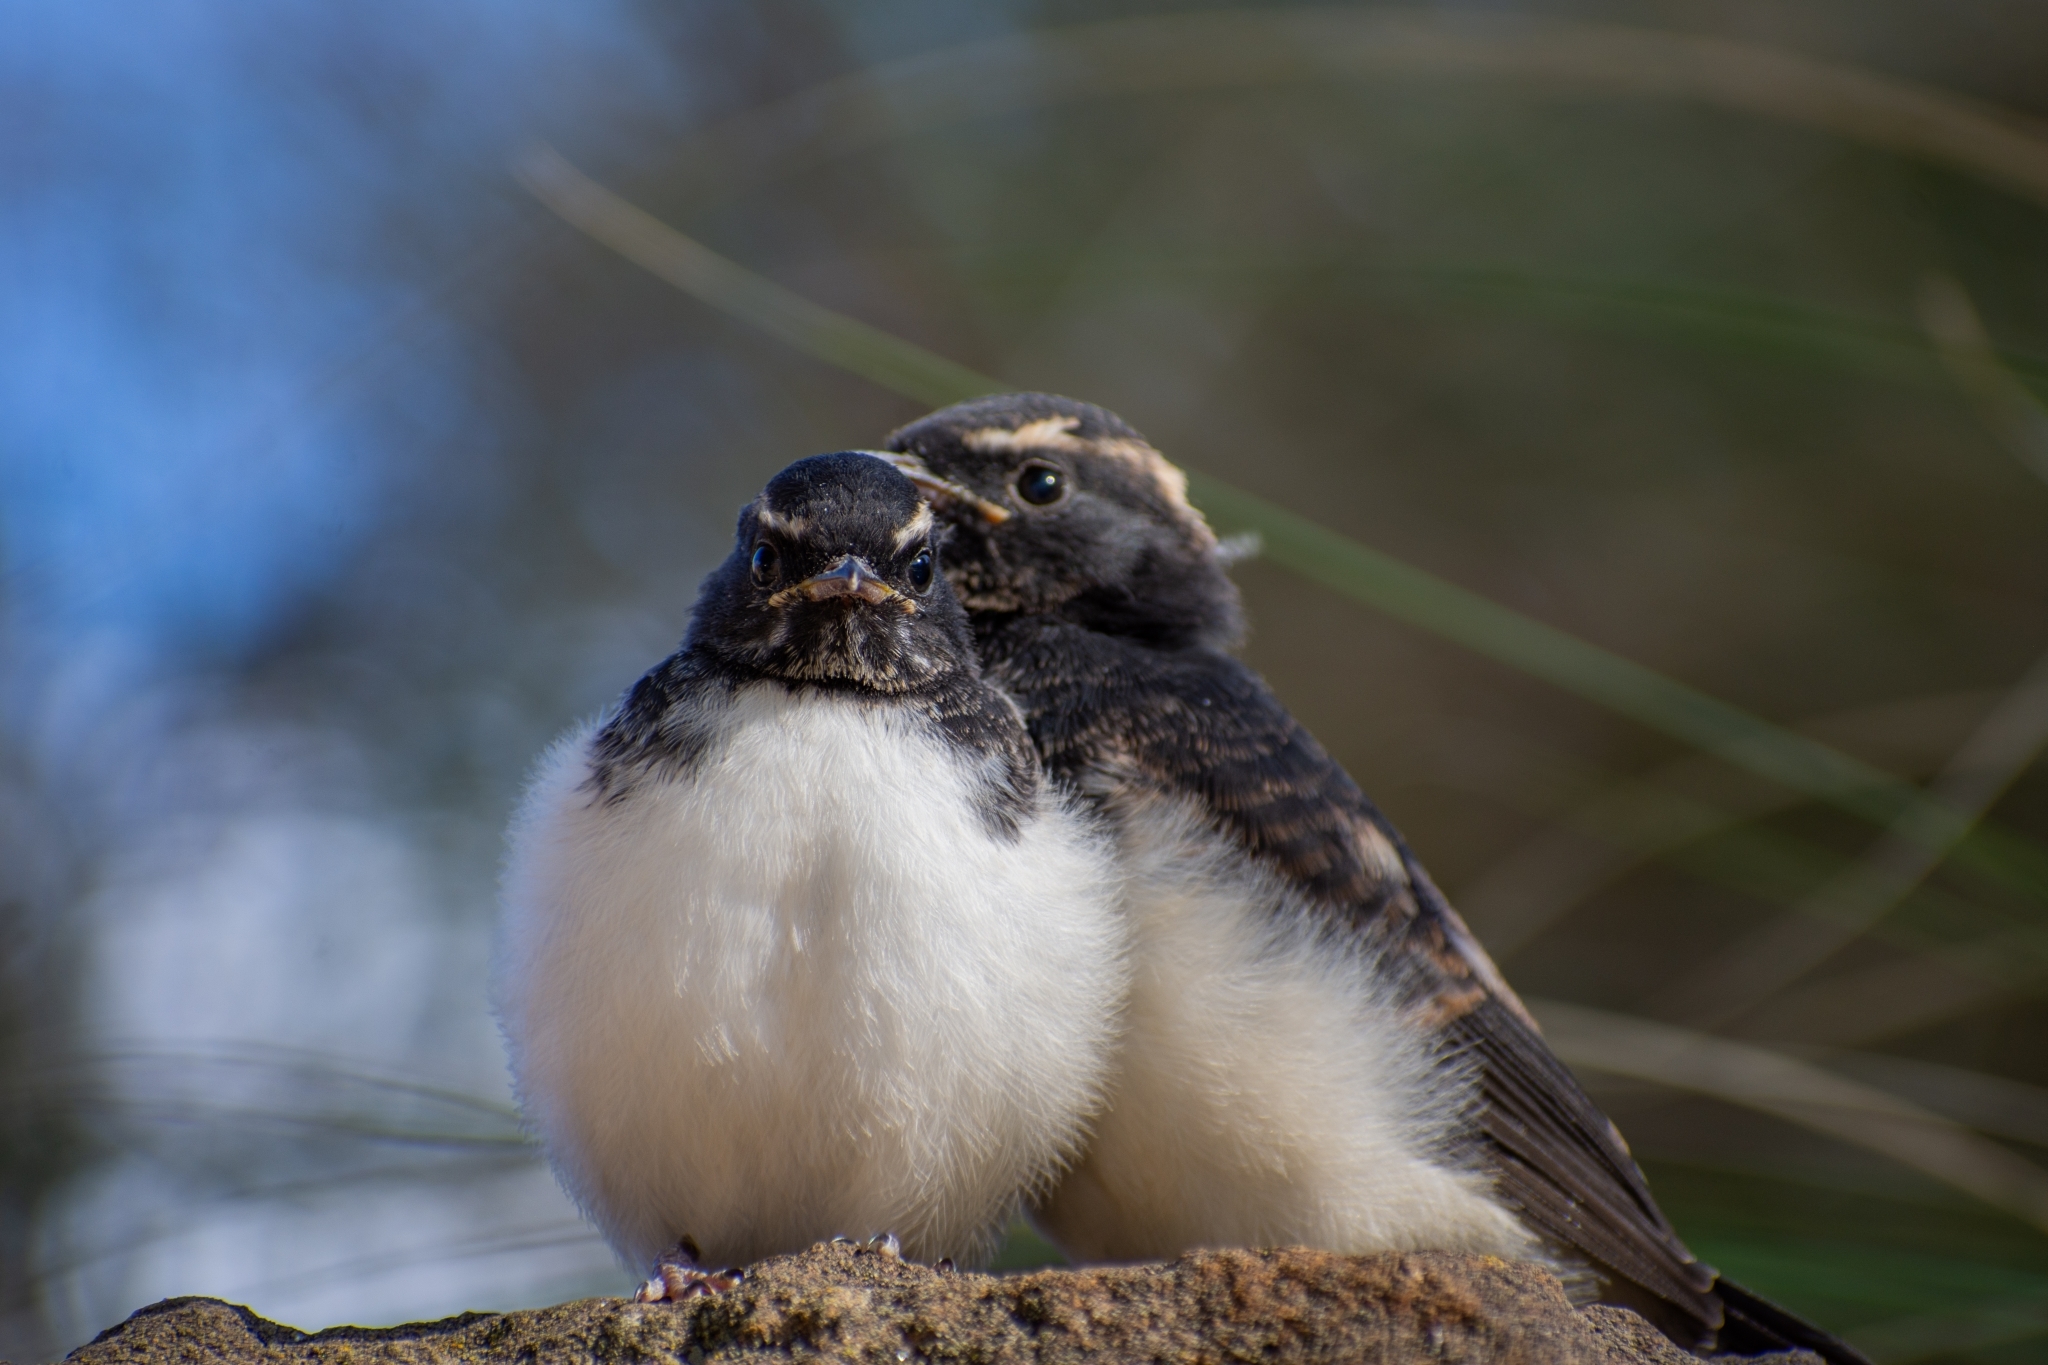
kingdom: Animalia
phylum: Chordata
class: Aves
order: Passeriformes
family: Rhipiduridae
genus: Rhipidura
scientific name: Rhipidura leucophrys
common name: Willie wagtail
